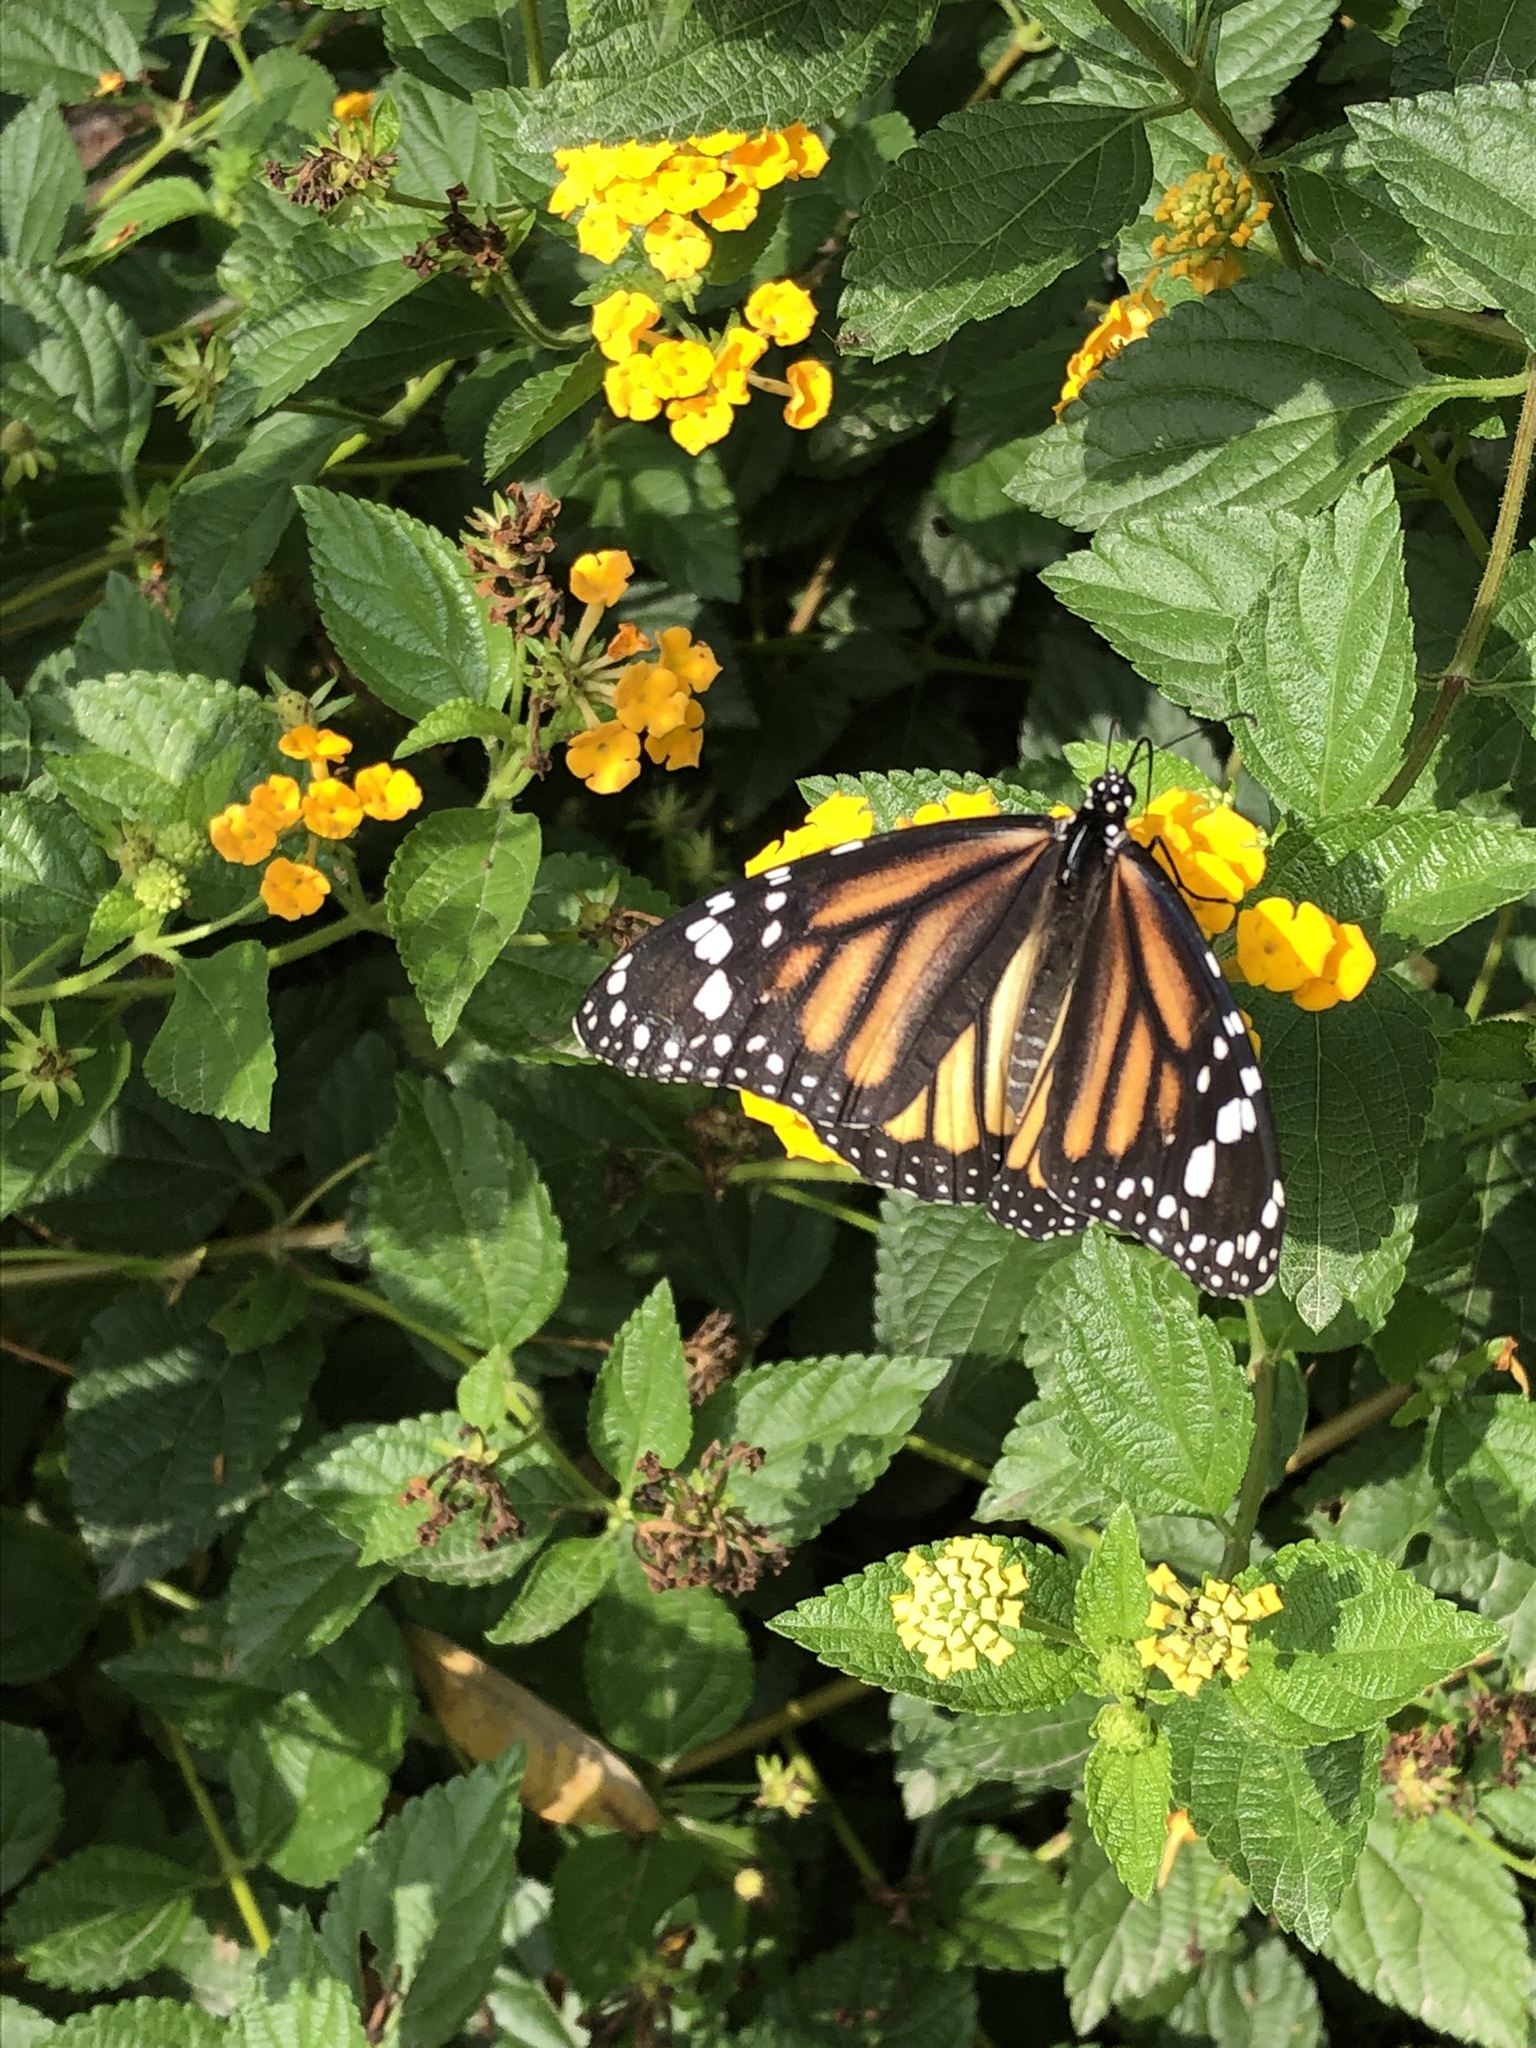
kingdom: Animalia
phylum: Arthropoda
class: Insecta
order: Lepidoptera
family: Nymphalidae
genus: Danaus
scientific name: Danaus plexippus
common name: Monarch
